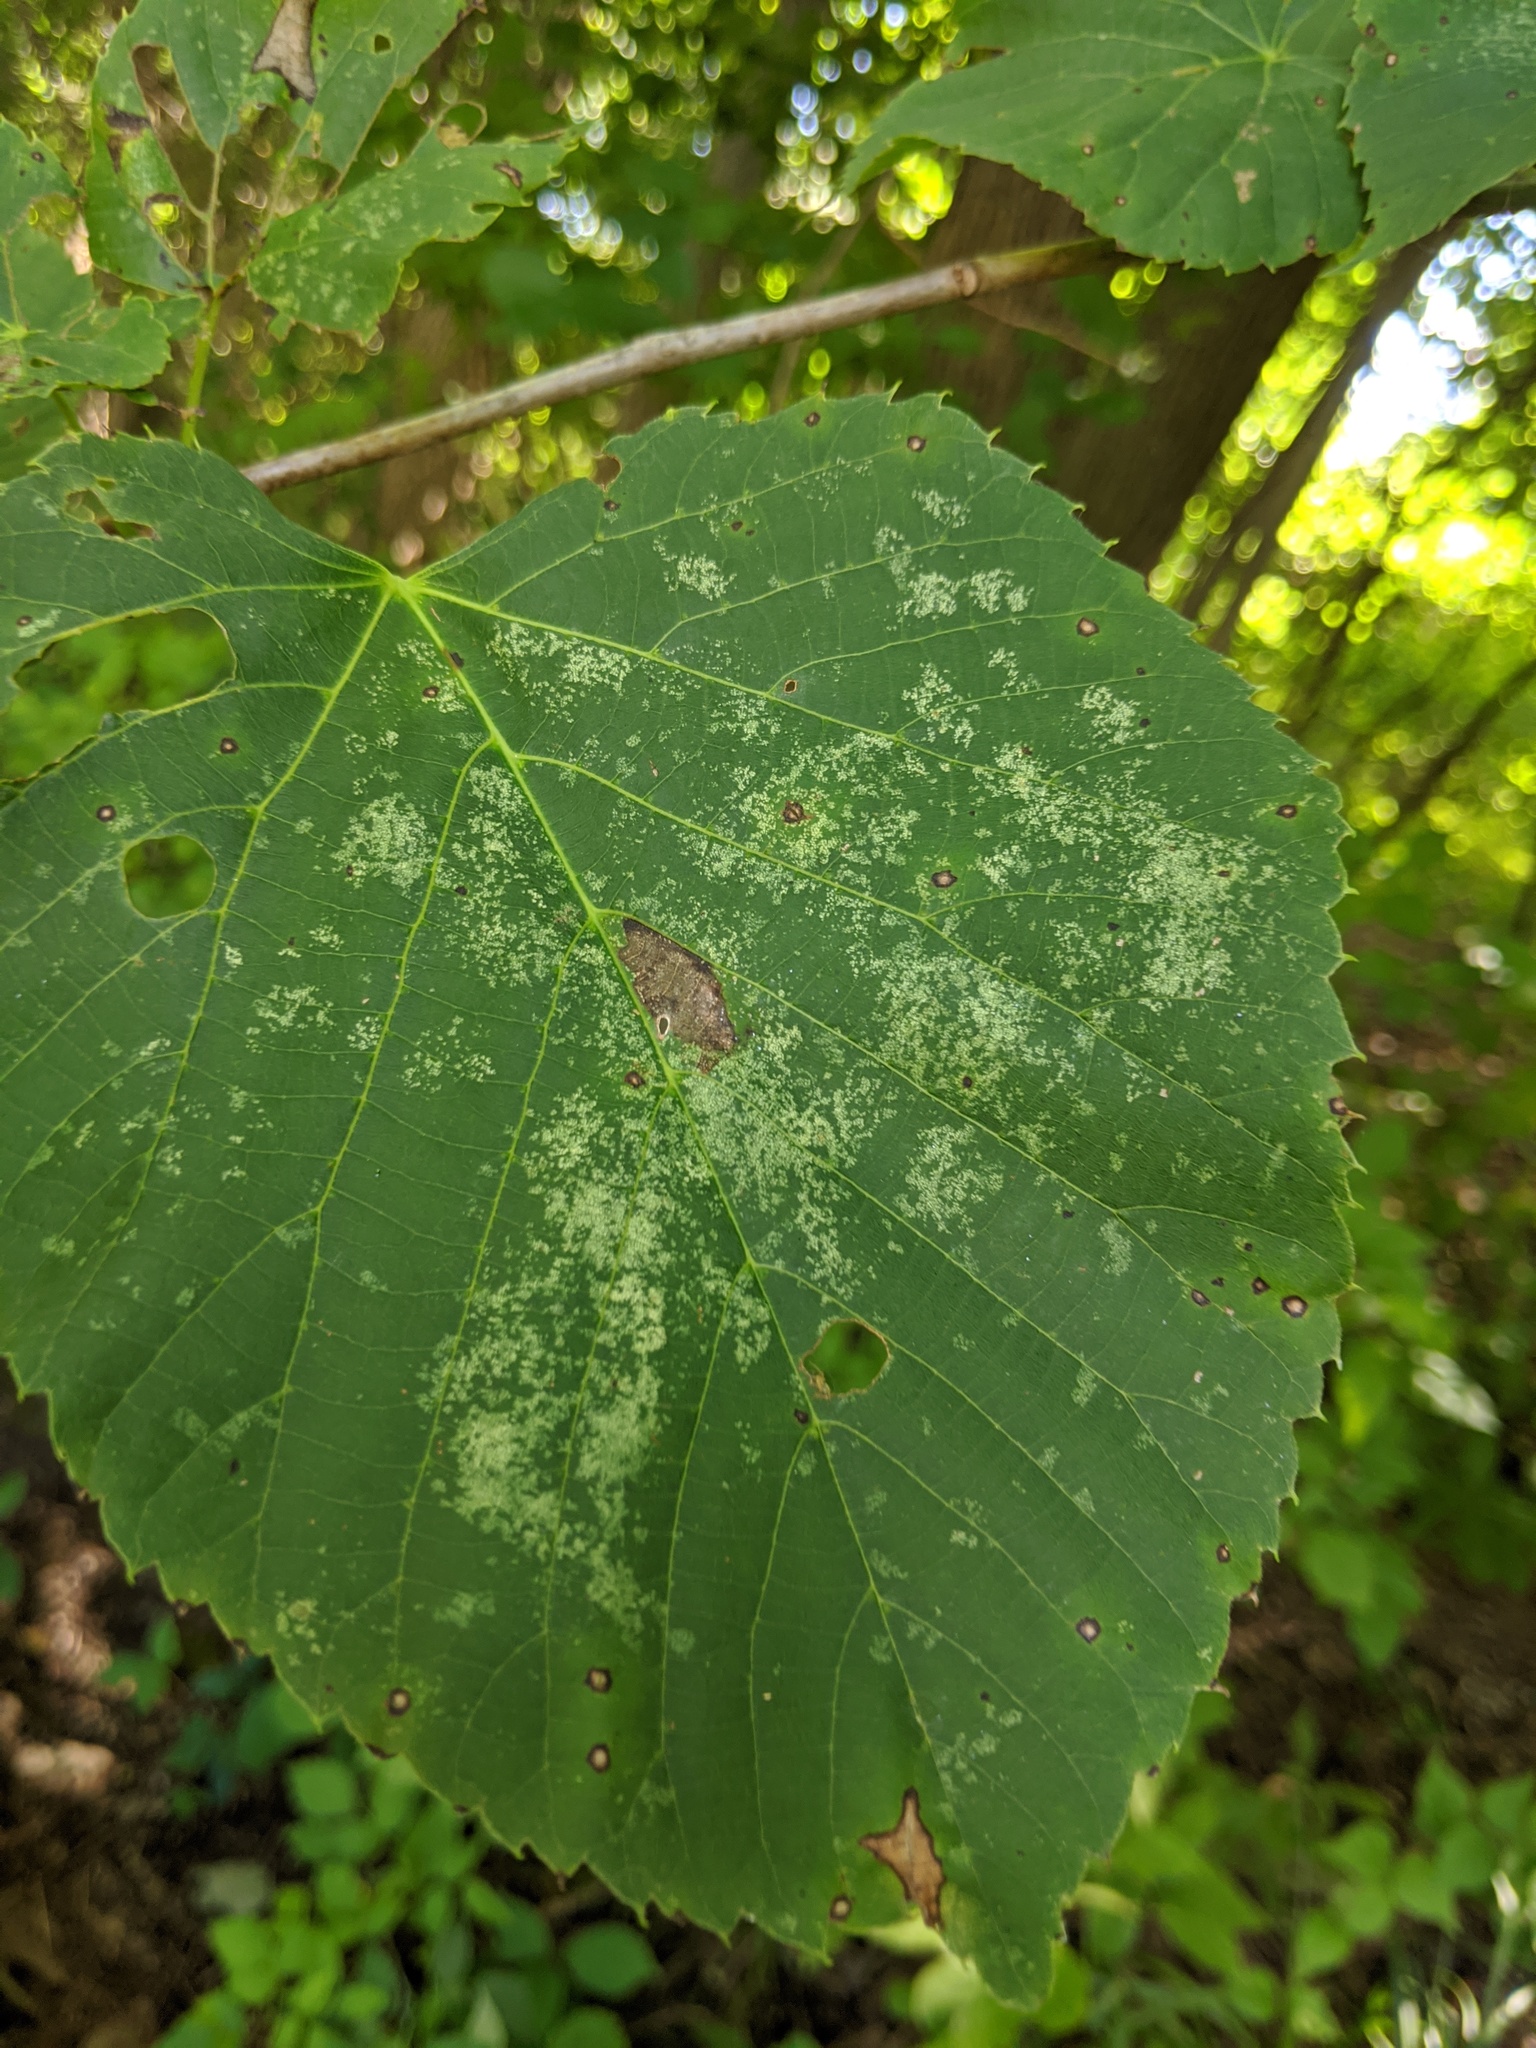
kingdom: Animalia
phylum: Arthropoda
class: Insecta
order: Hemiptera
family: Tingidae
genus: Gargaphia
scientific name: Gargaphia tiliae
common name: Basswood lace bug
